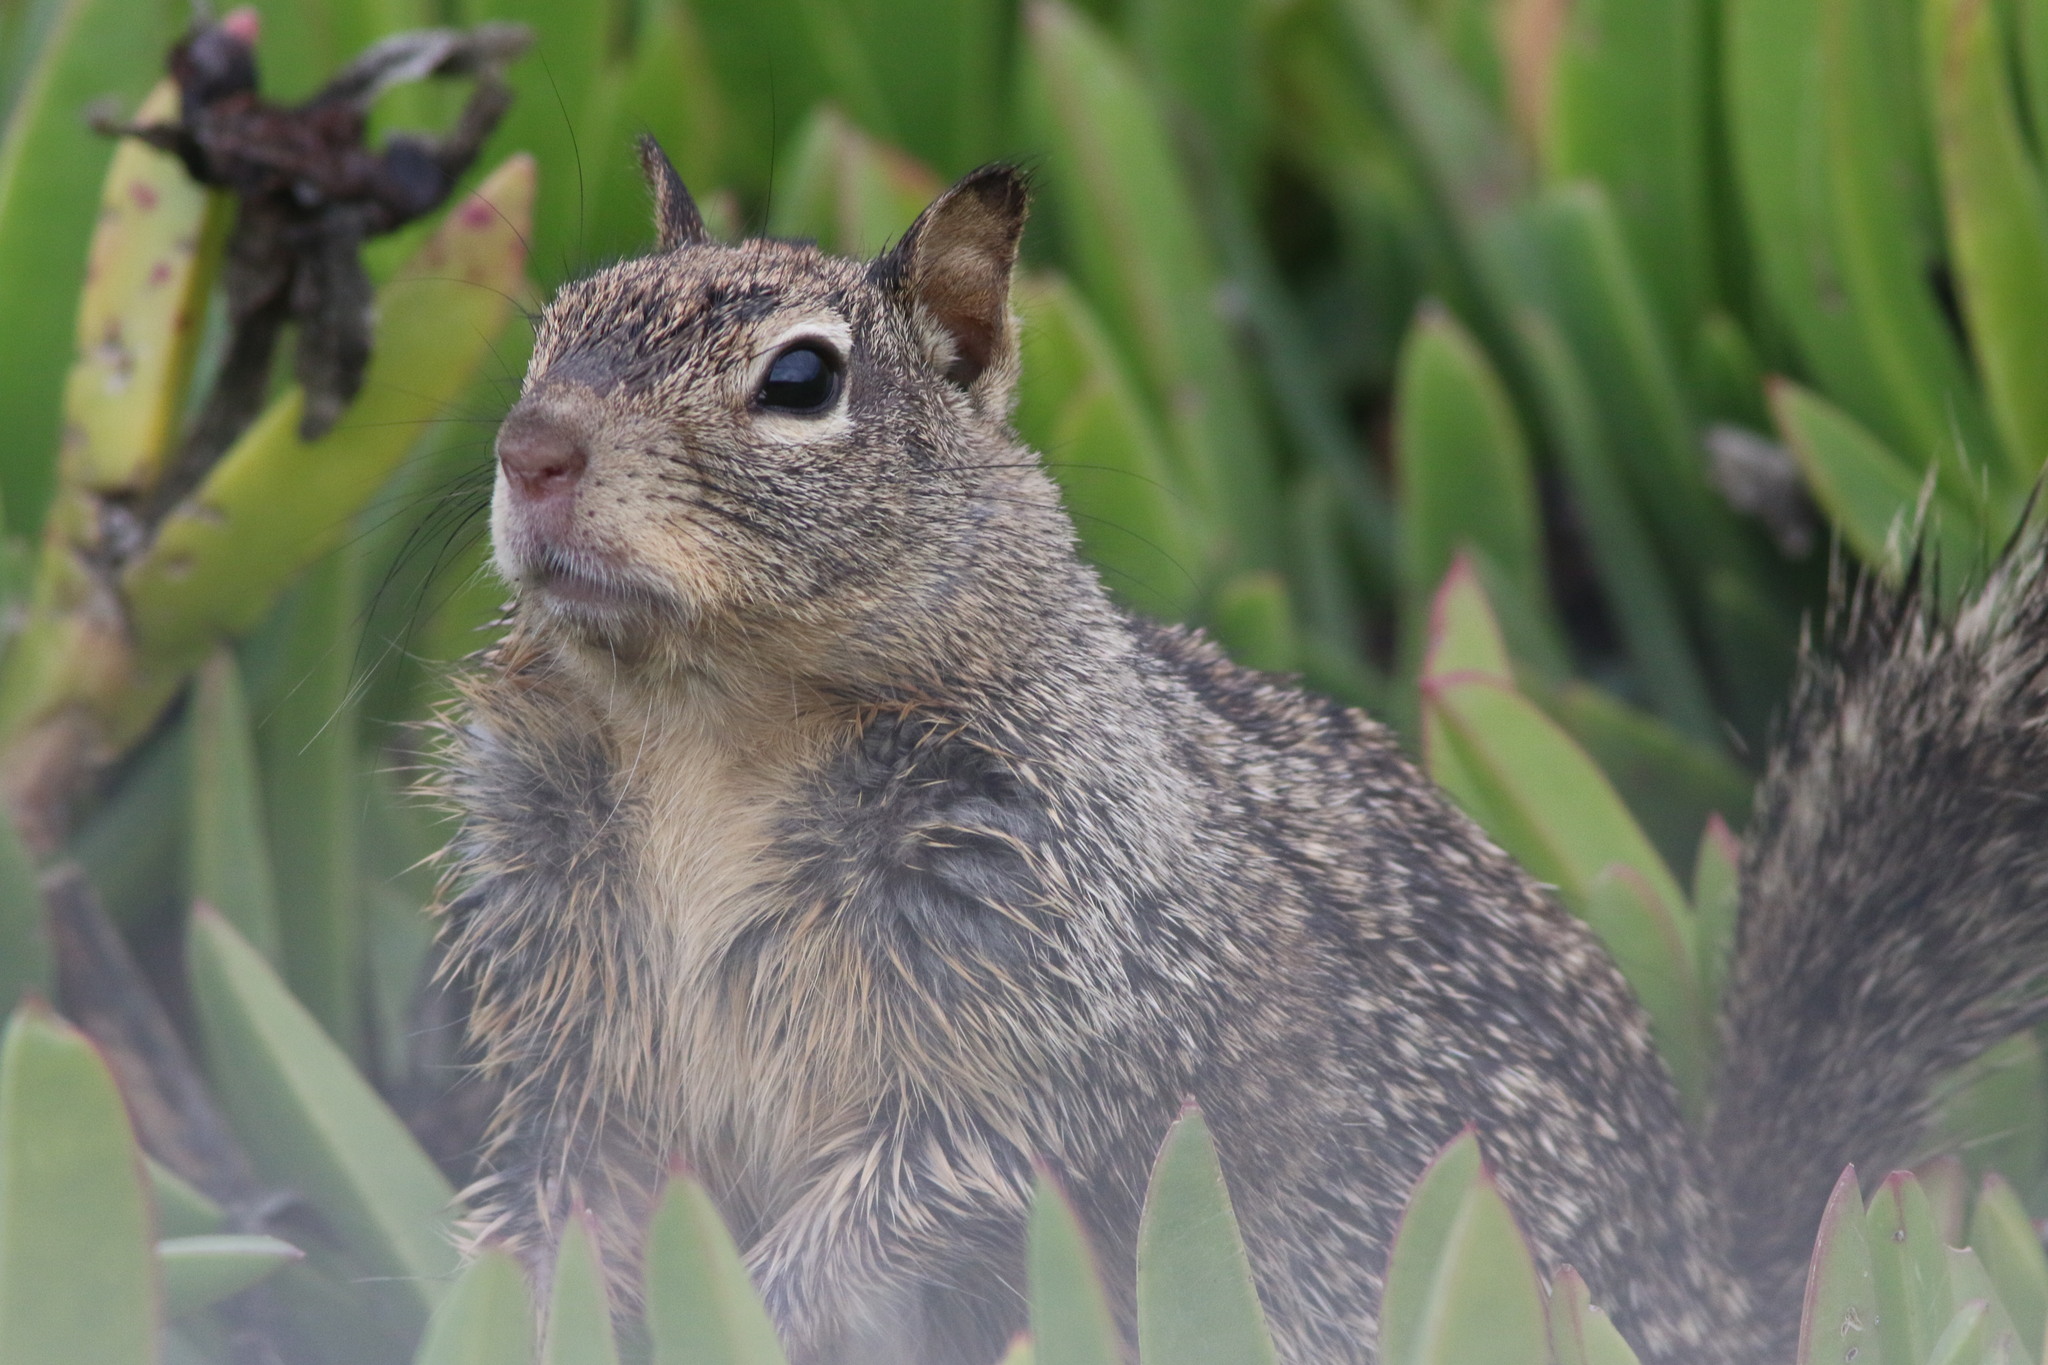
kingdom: Animalia
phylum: Chordata
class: Mammalia
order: Rodentia
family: Sciuridae
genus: Otospermophilus
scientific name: Otospermophilus beecheyi
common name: California ground squirrel
